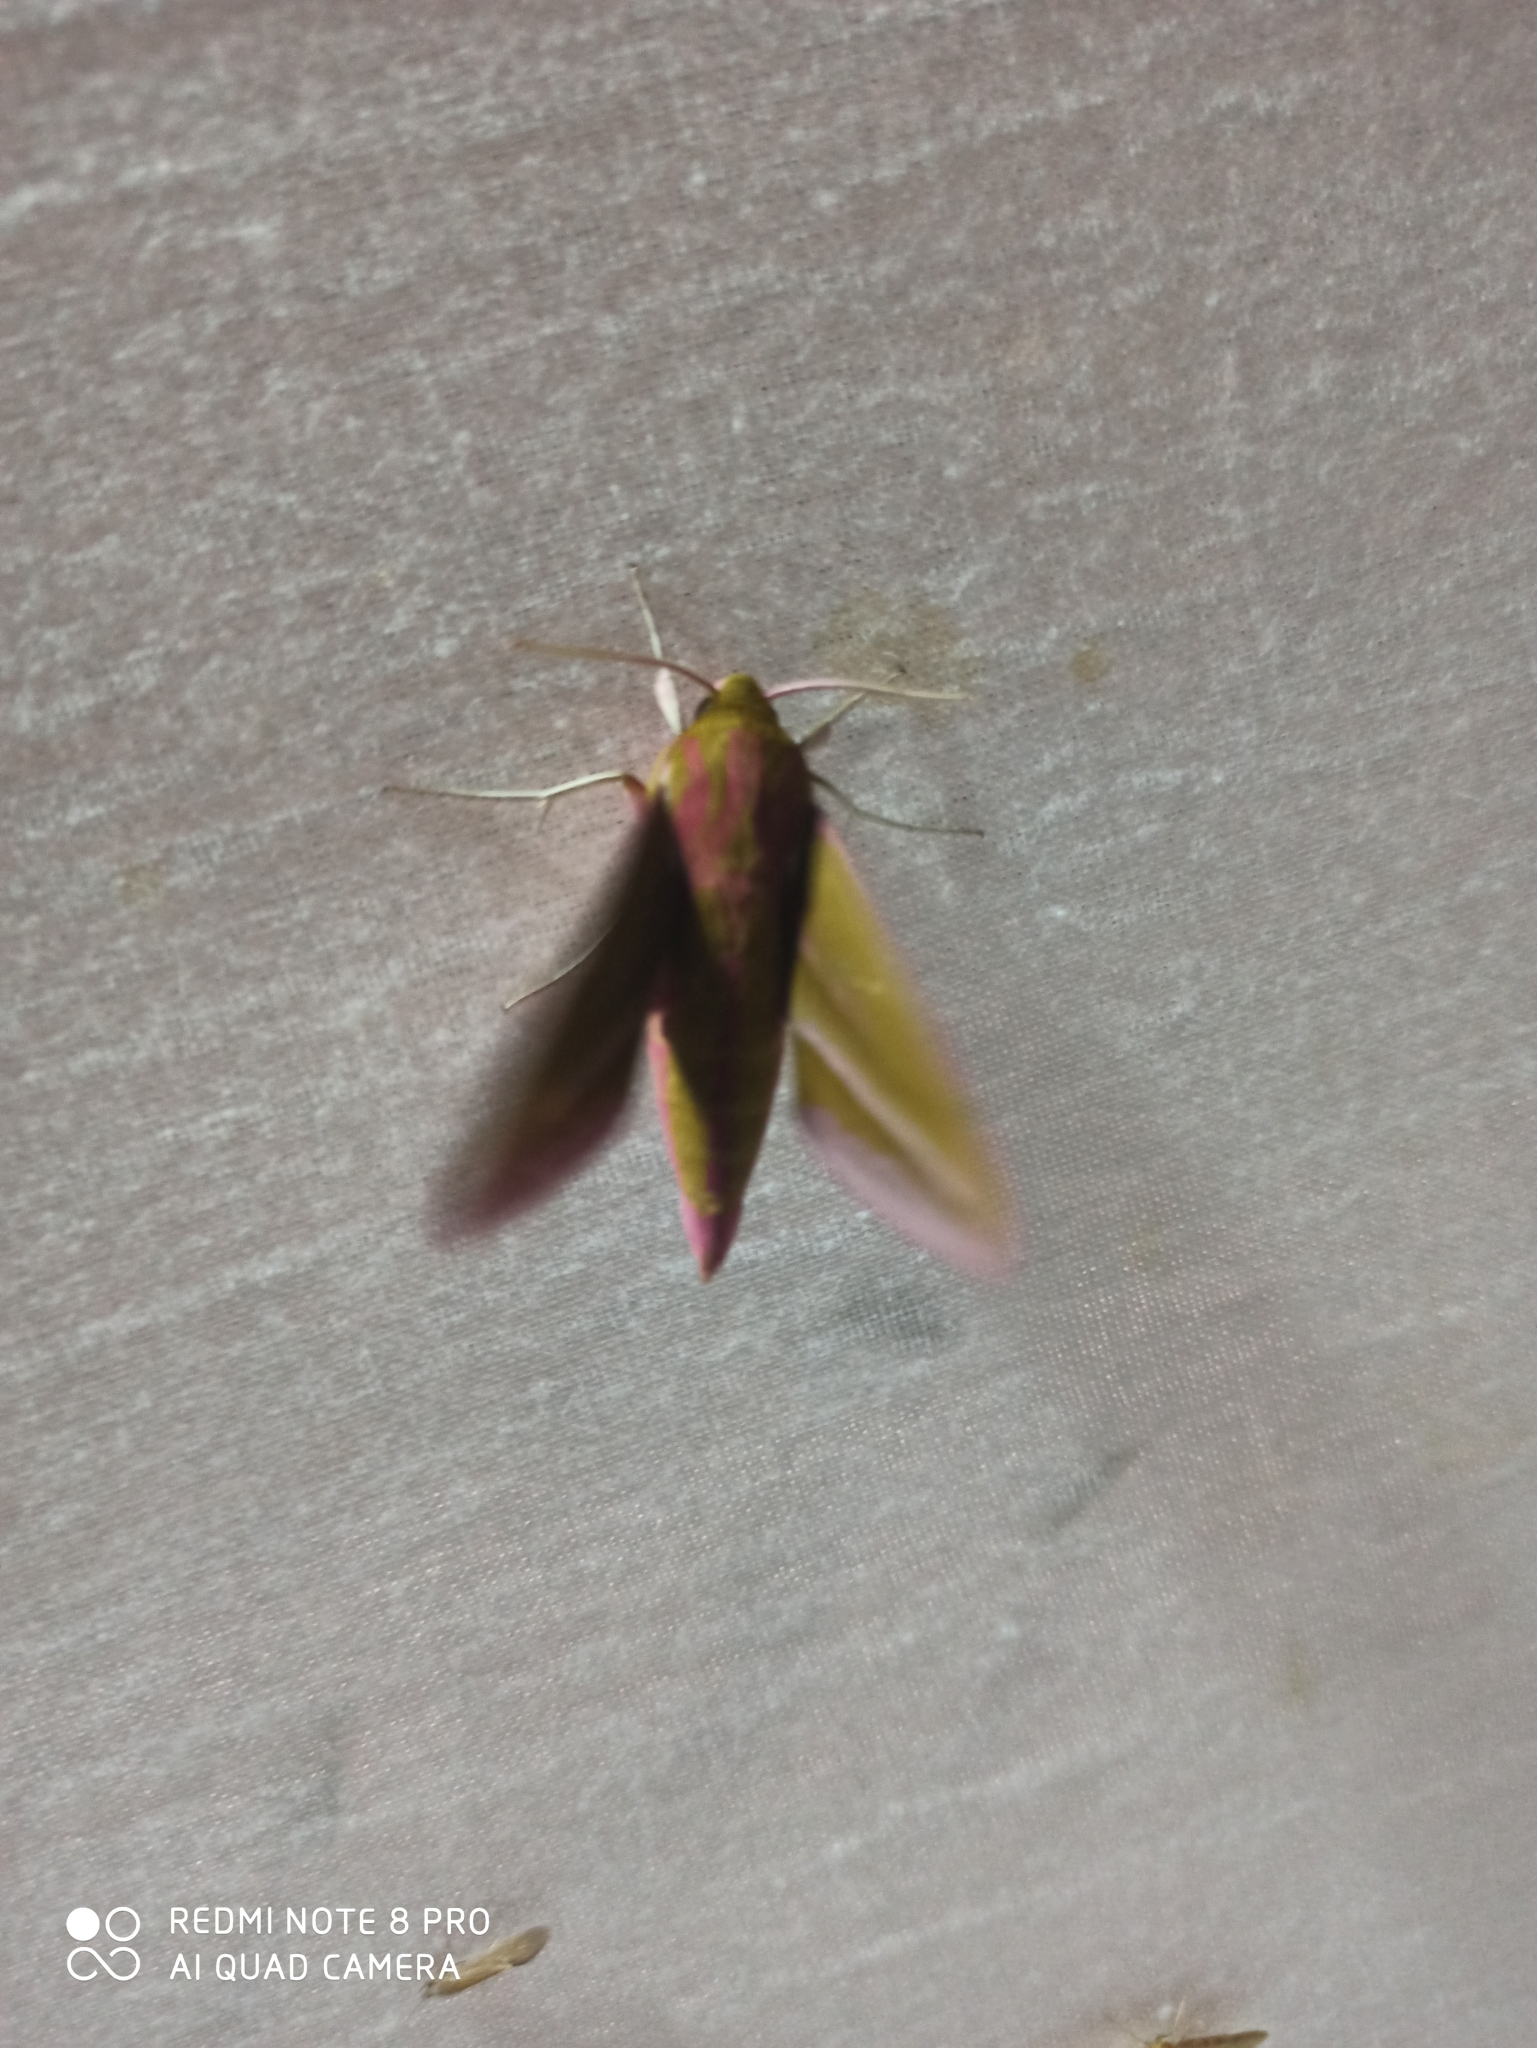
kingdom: Animalia
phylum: Arthropoda
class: Insecta
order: Lepidoptera
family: Sphingidae
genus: Deilephila
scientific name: Deilephila elpenor
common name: Elephant hawk-moth
